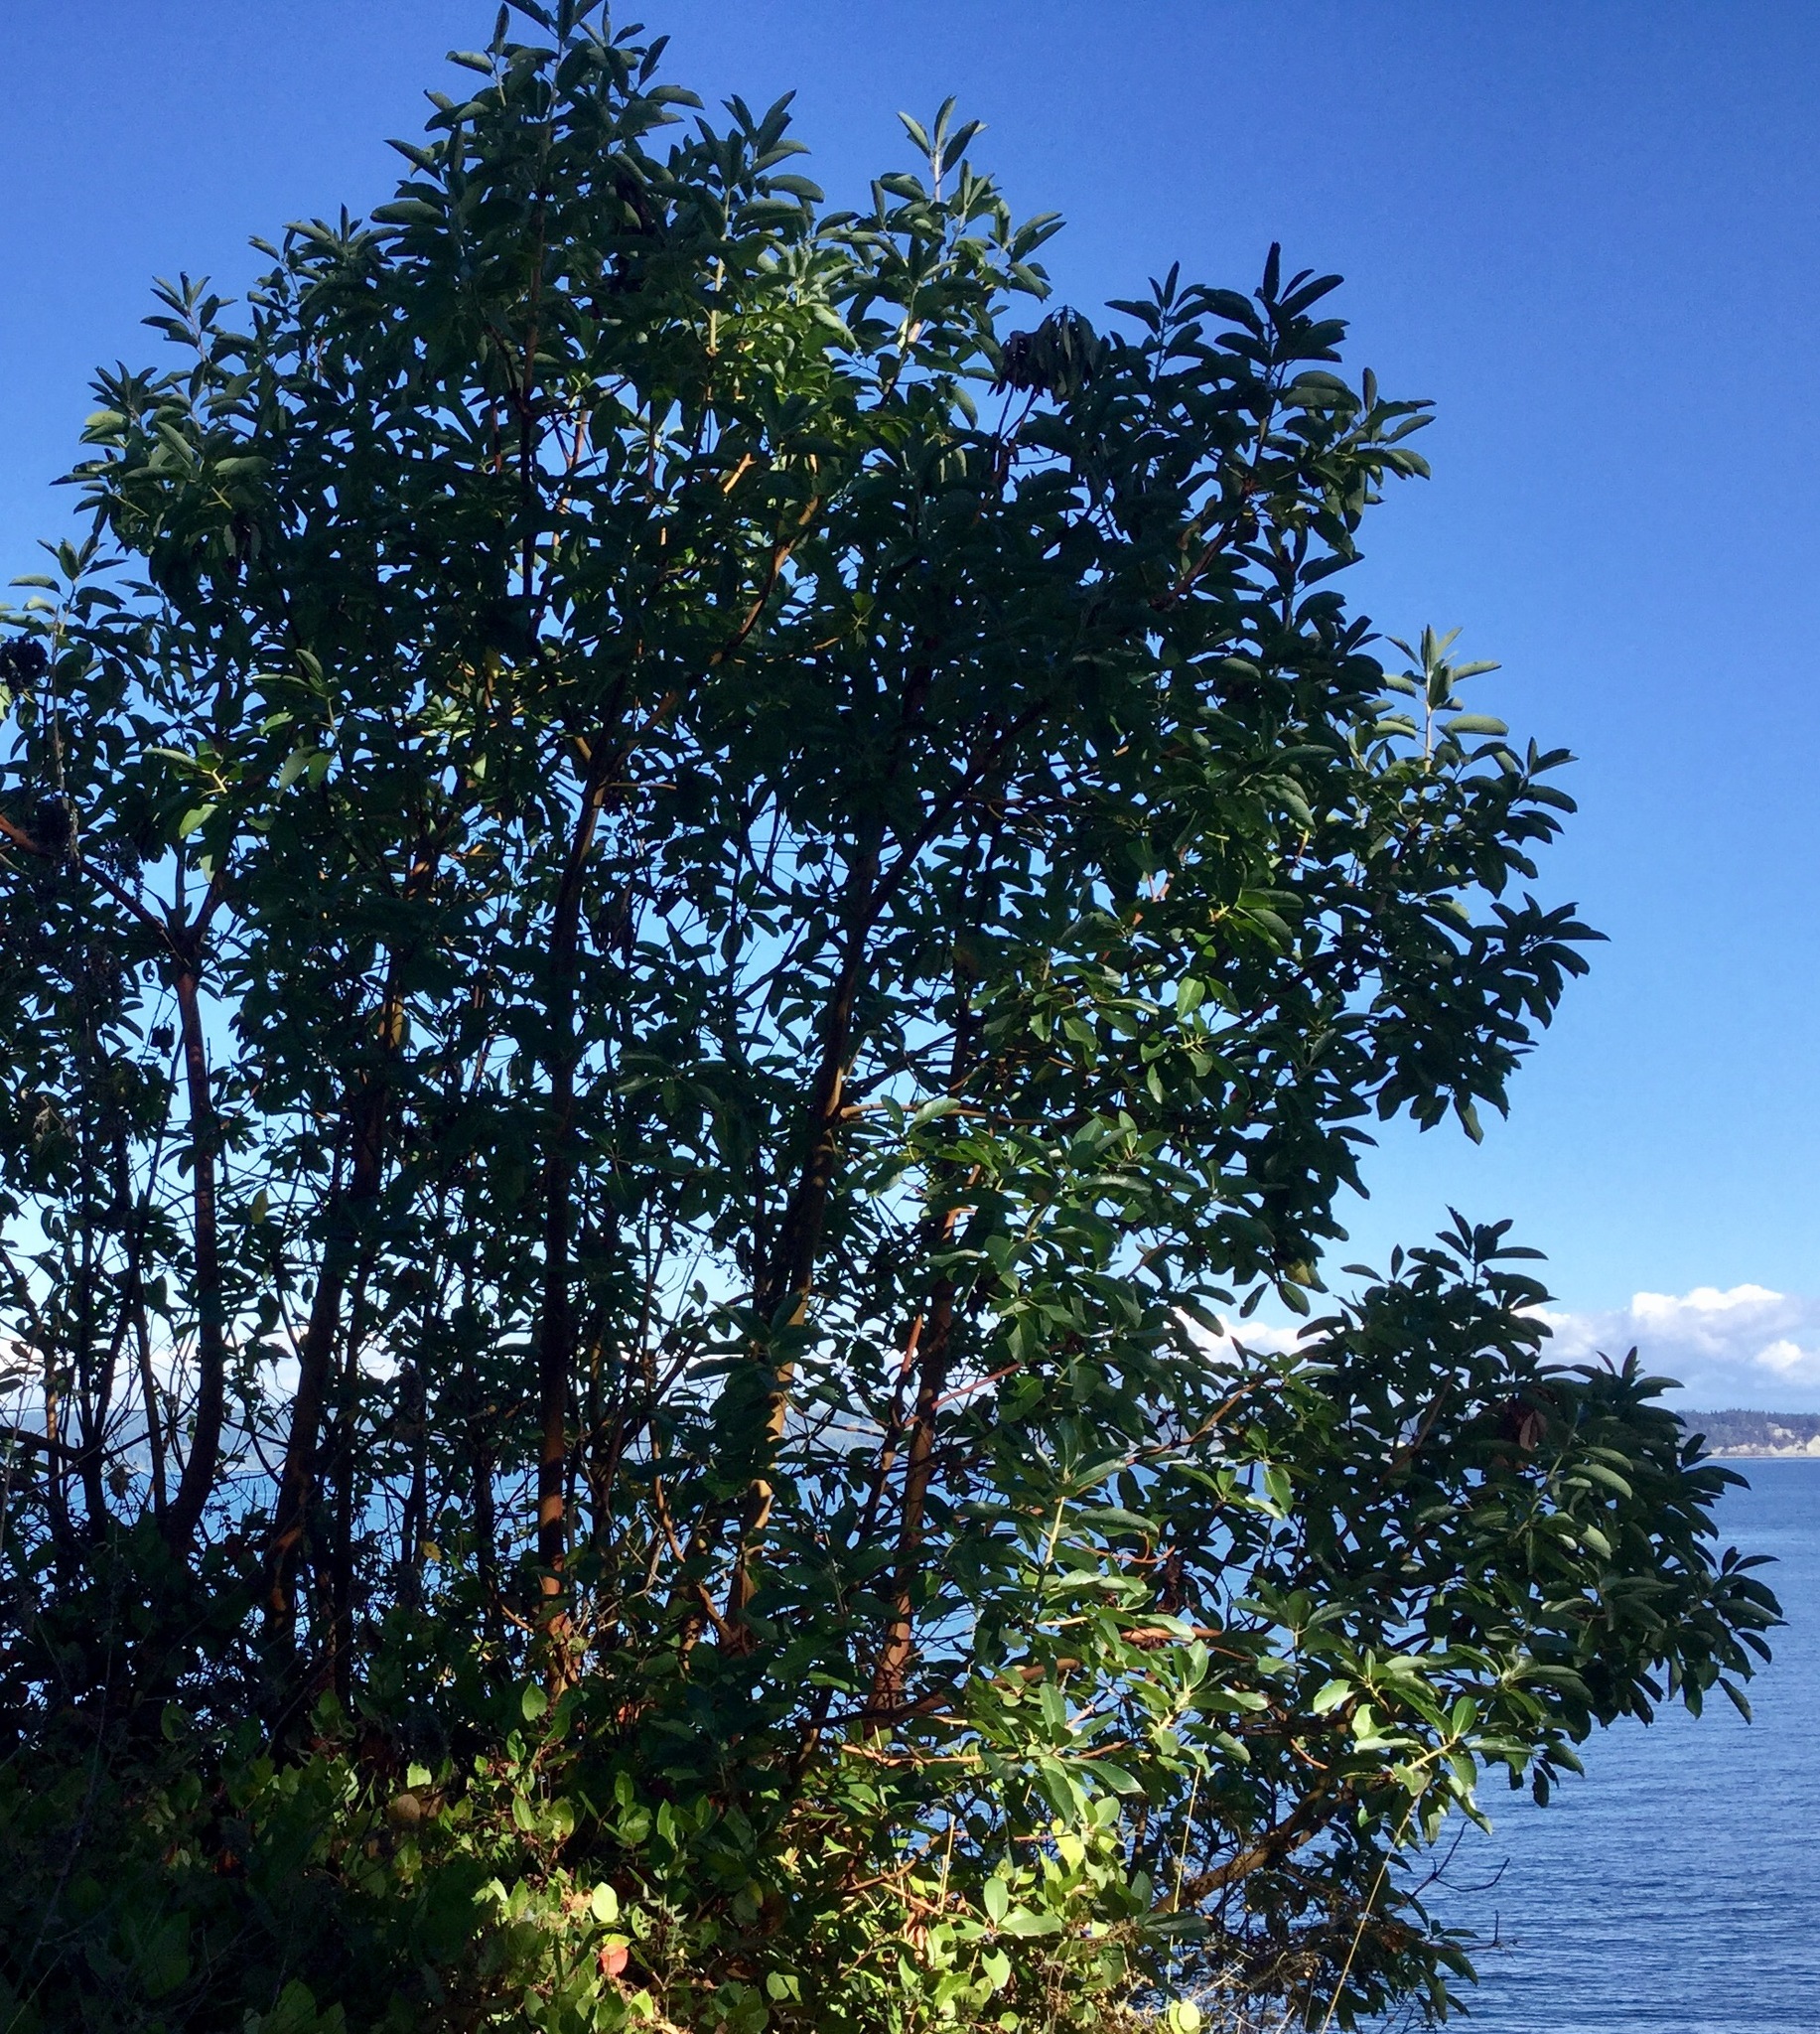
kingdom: Plantae
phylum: Tracheophyta
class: Magnoliopsida
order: Ericales
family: Ericaceae
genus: Arbutus
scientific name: Arbutus menziesii
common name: Pacific madrone
